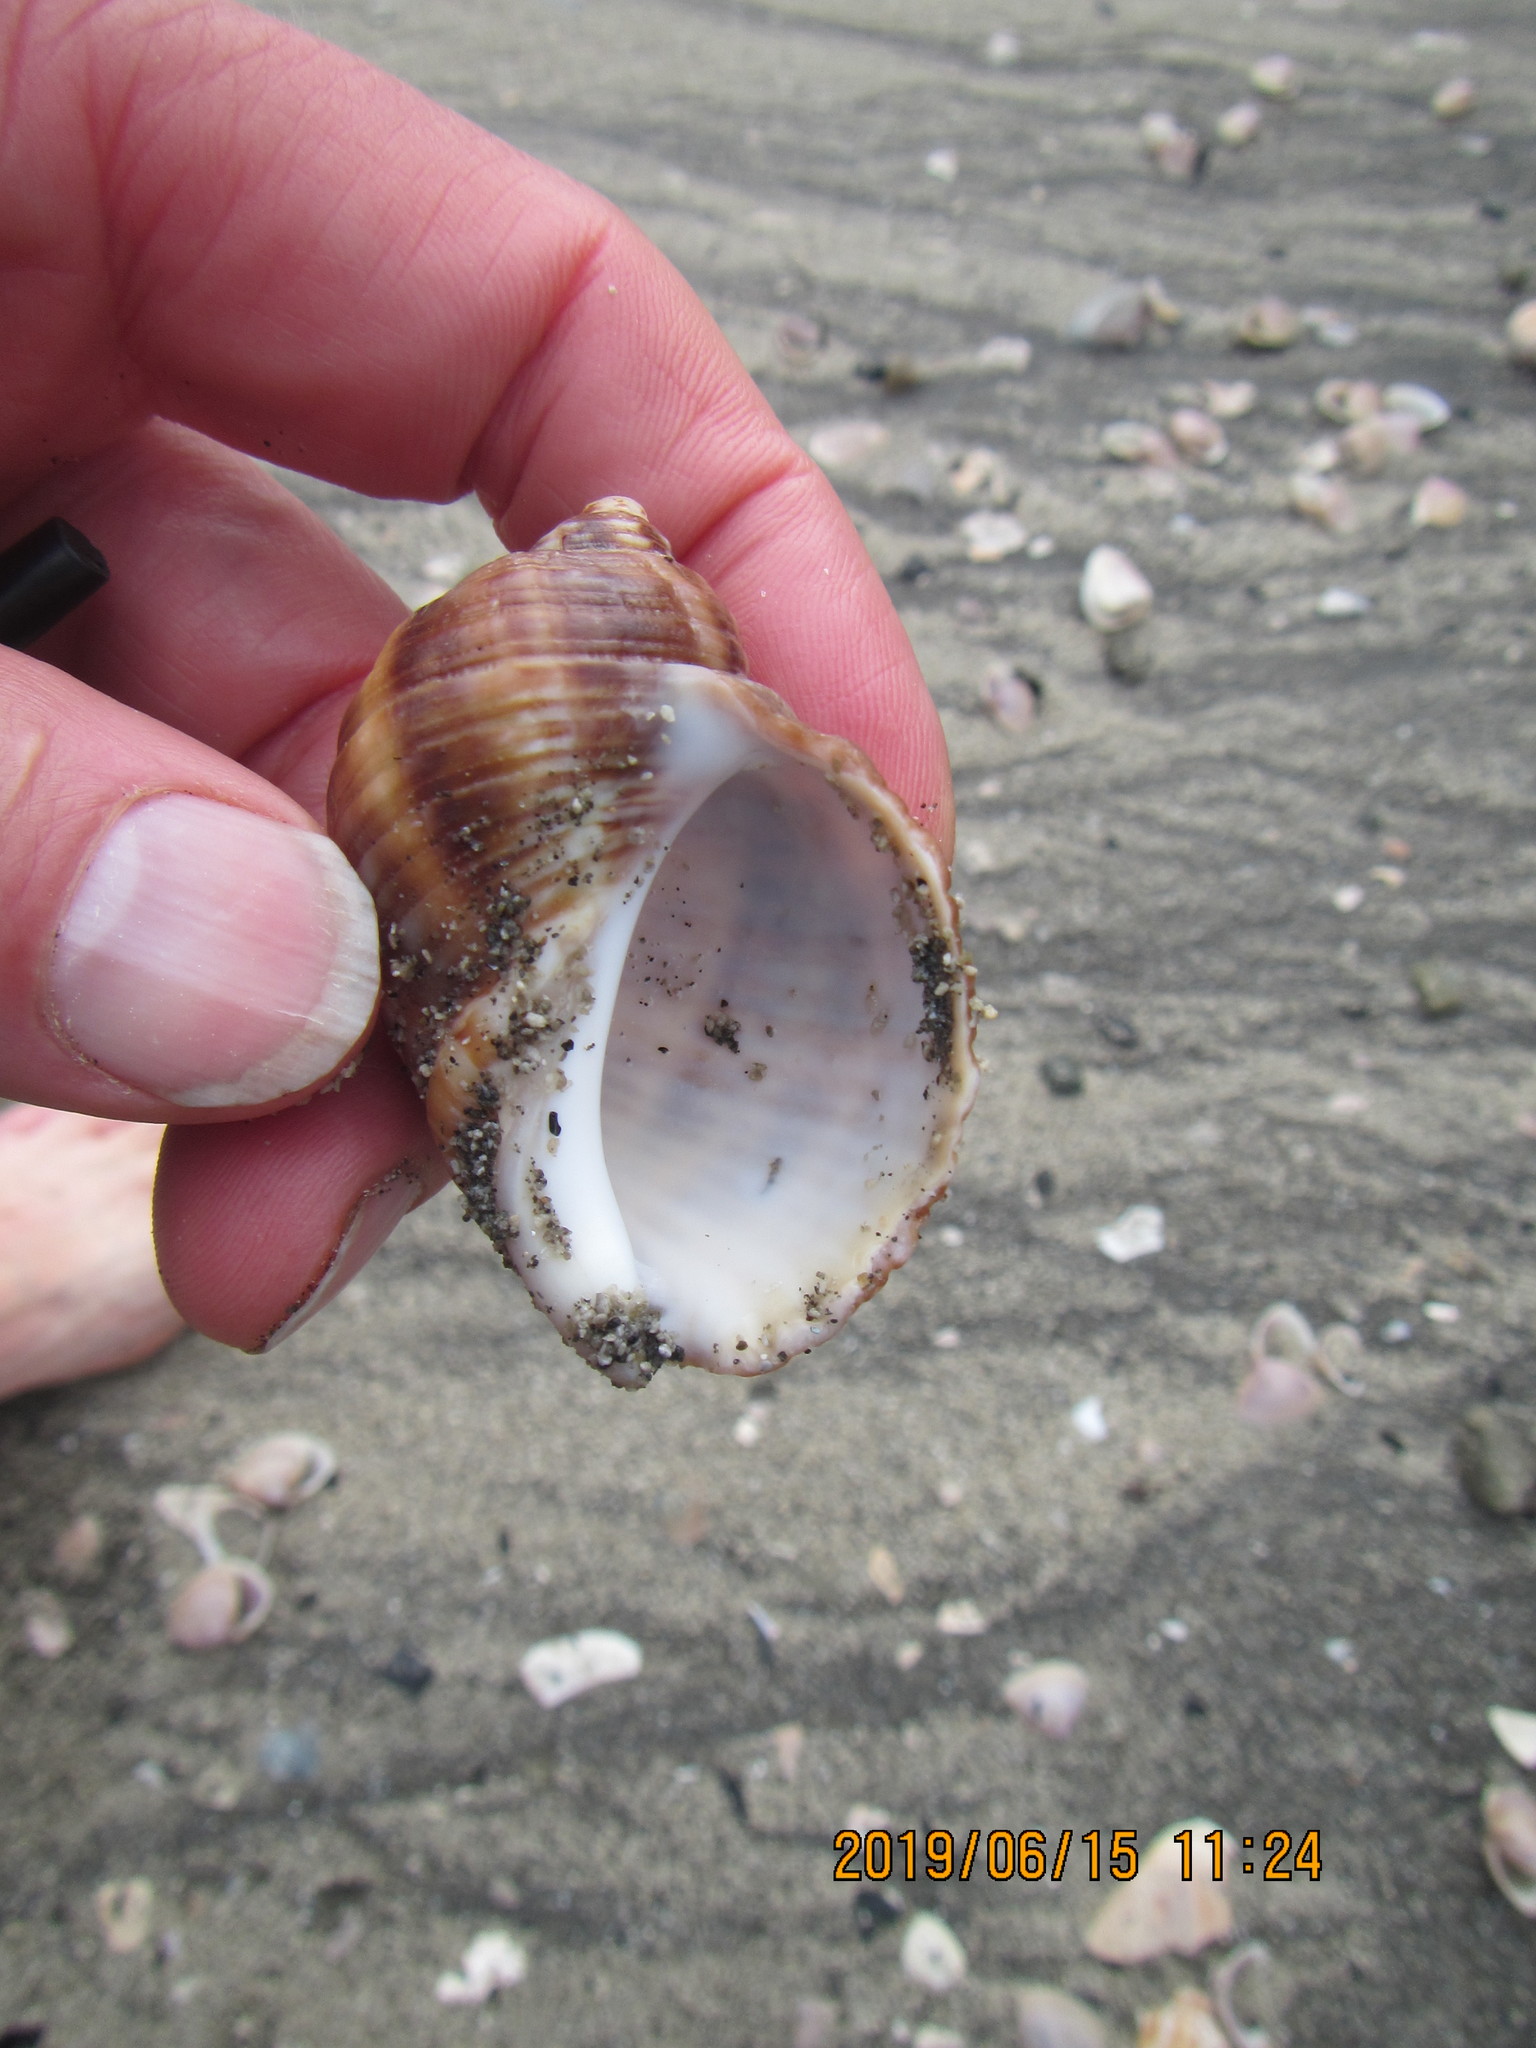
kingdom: Animalia
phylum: Mollusca
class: Gastropoda
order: Neogastropoda
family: Muricidae
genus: Dicathais
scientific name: Dicathais orbita
